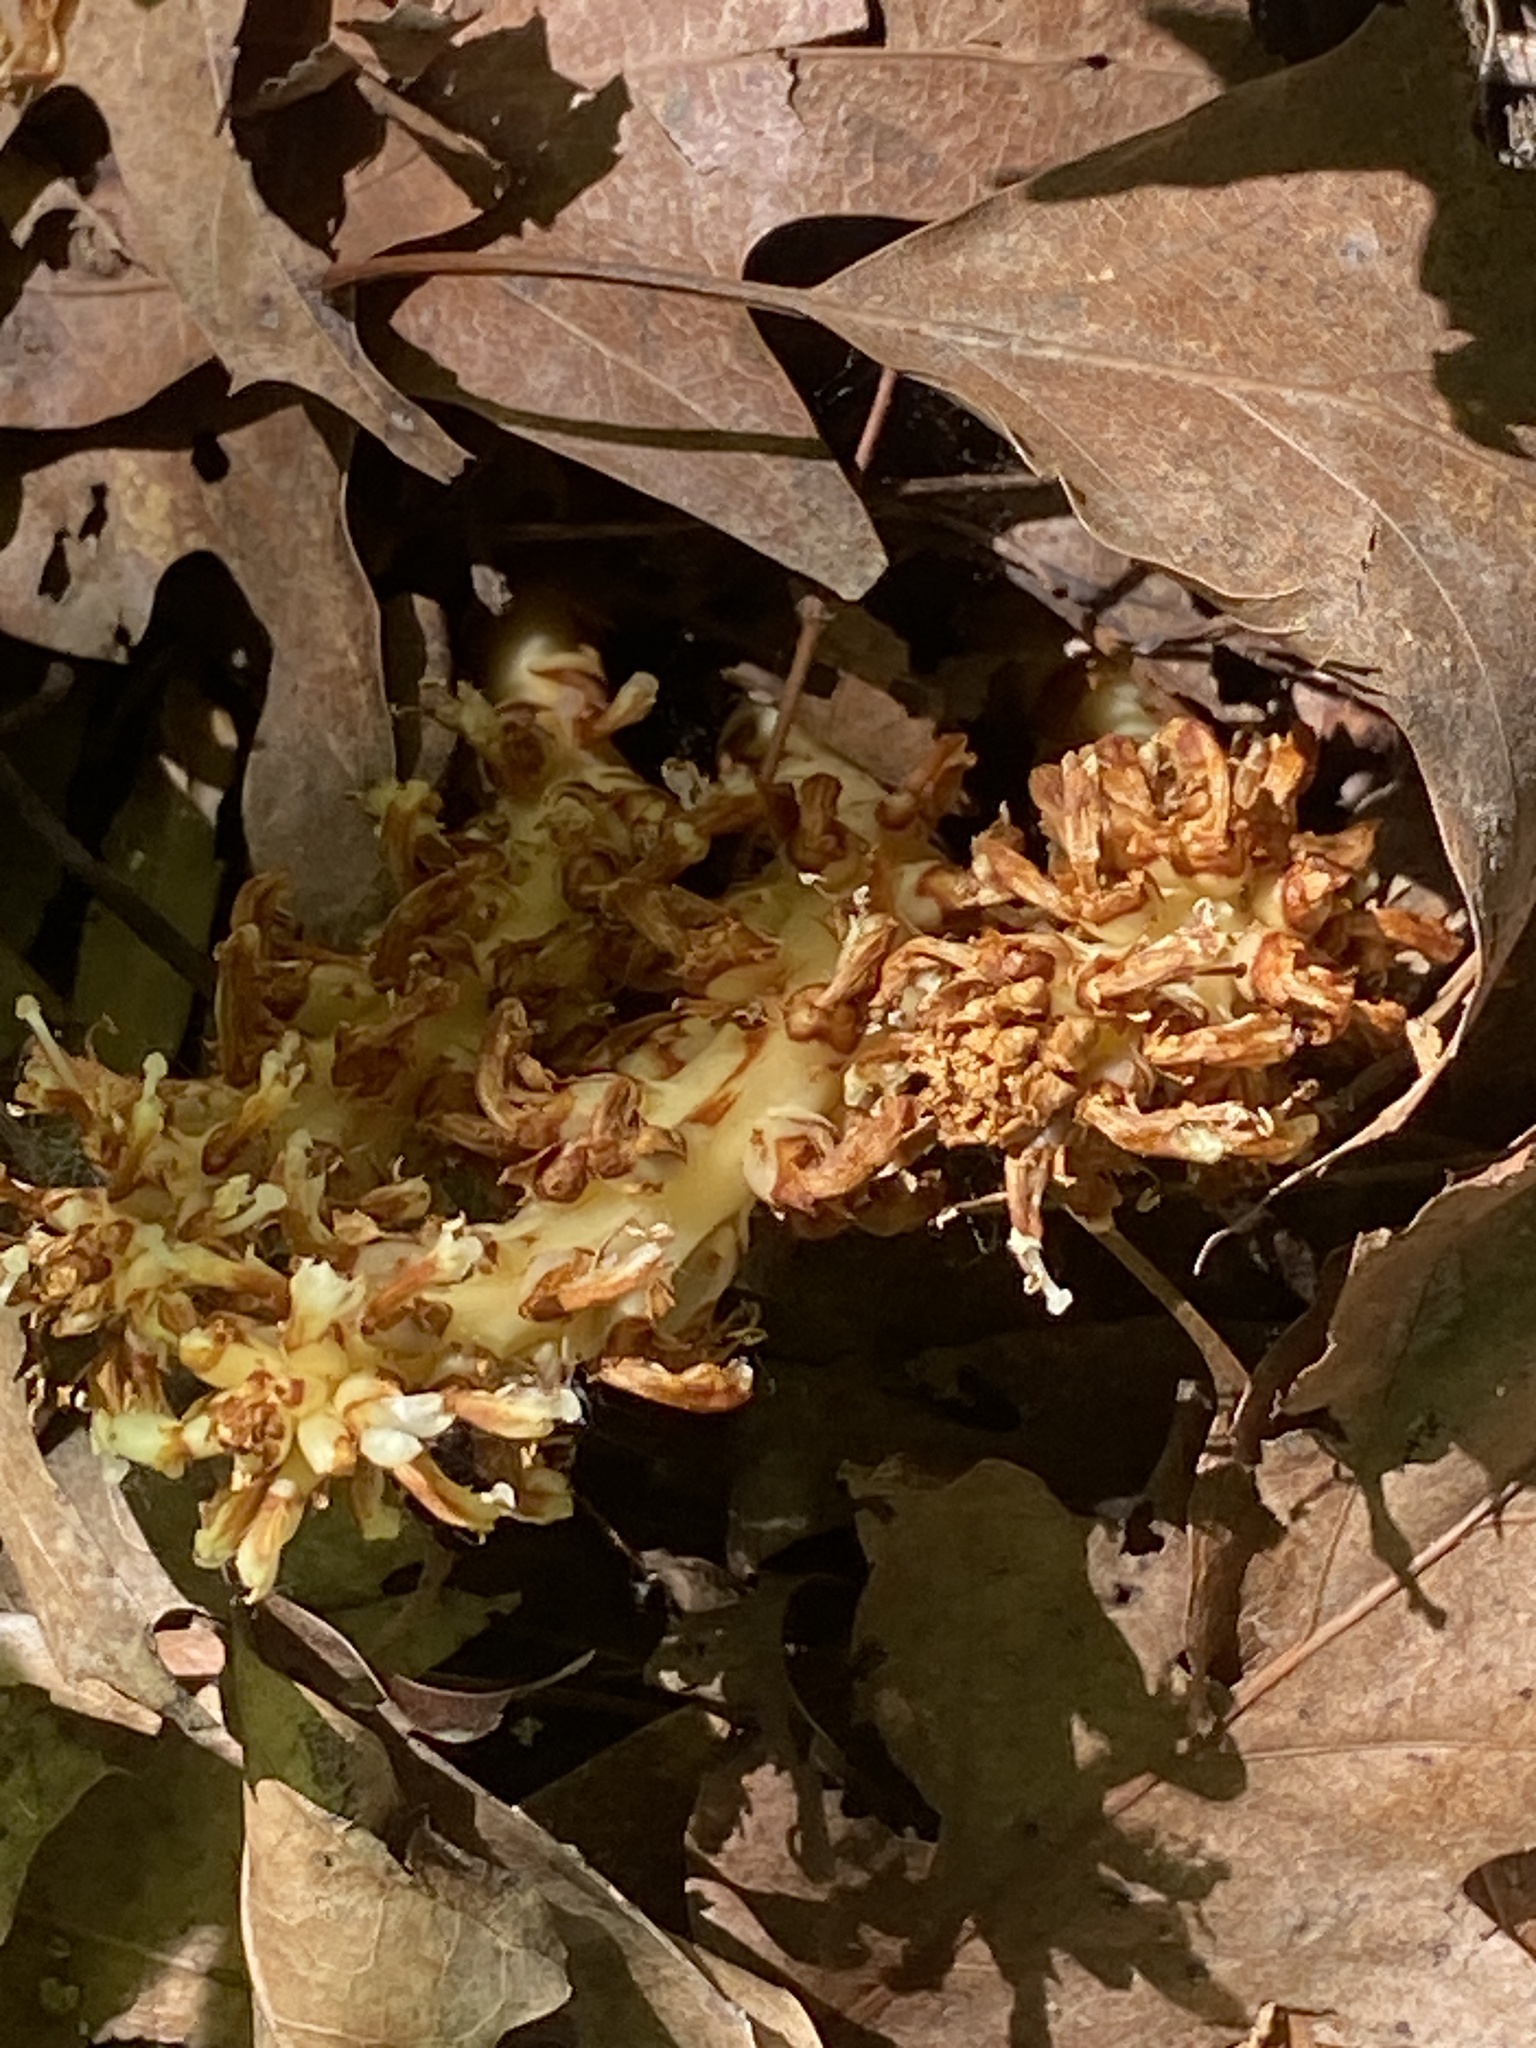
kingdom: Plantae
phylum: Tracheophyta
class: Magnoliopsida
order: Lamiales
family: Orobanchaceae
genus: Conopholis
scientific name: Conopholis americana
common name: American cancer-root
